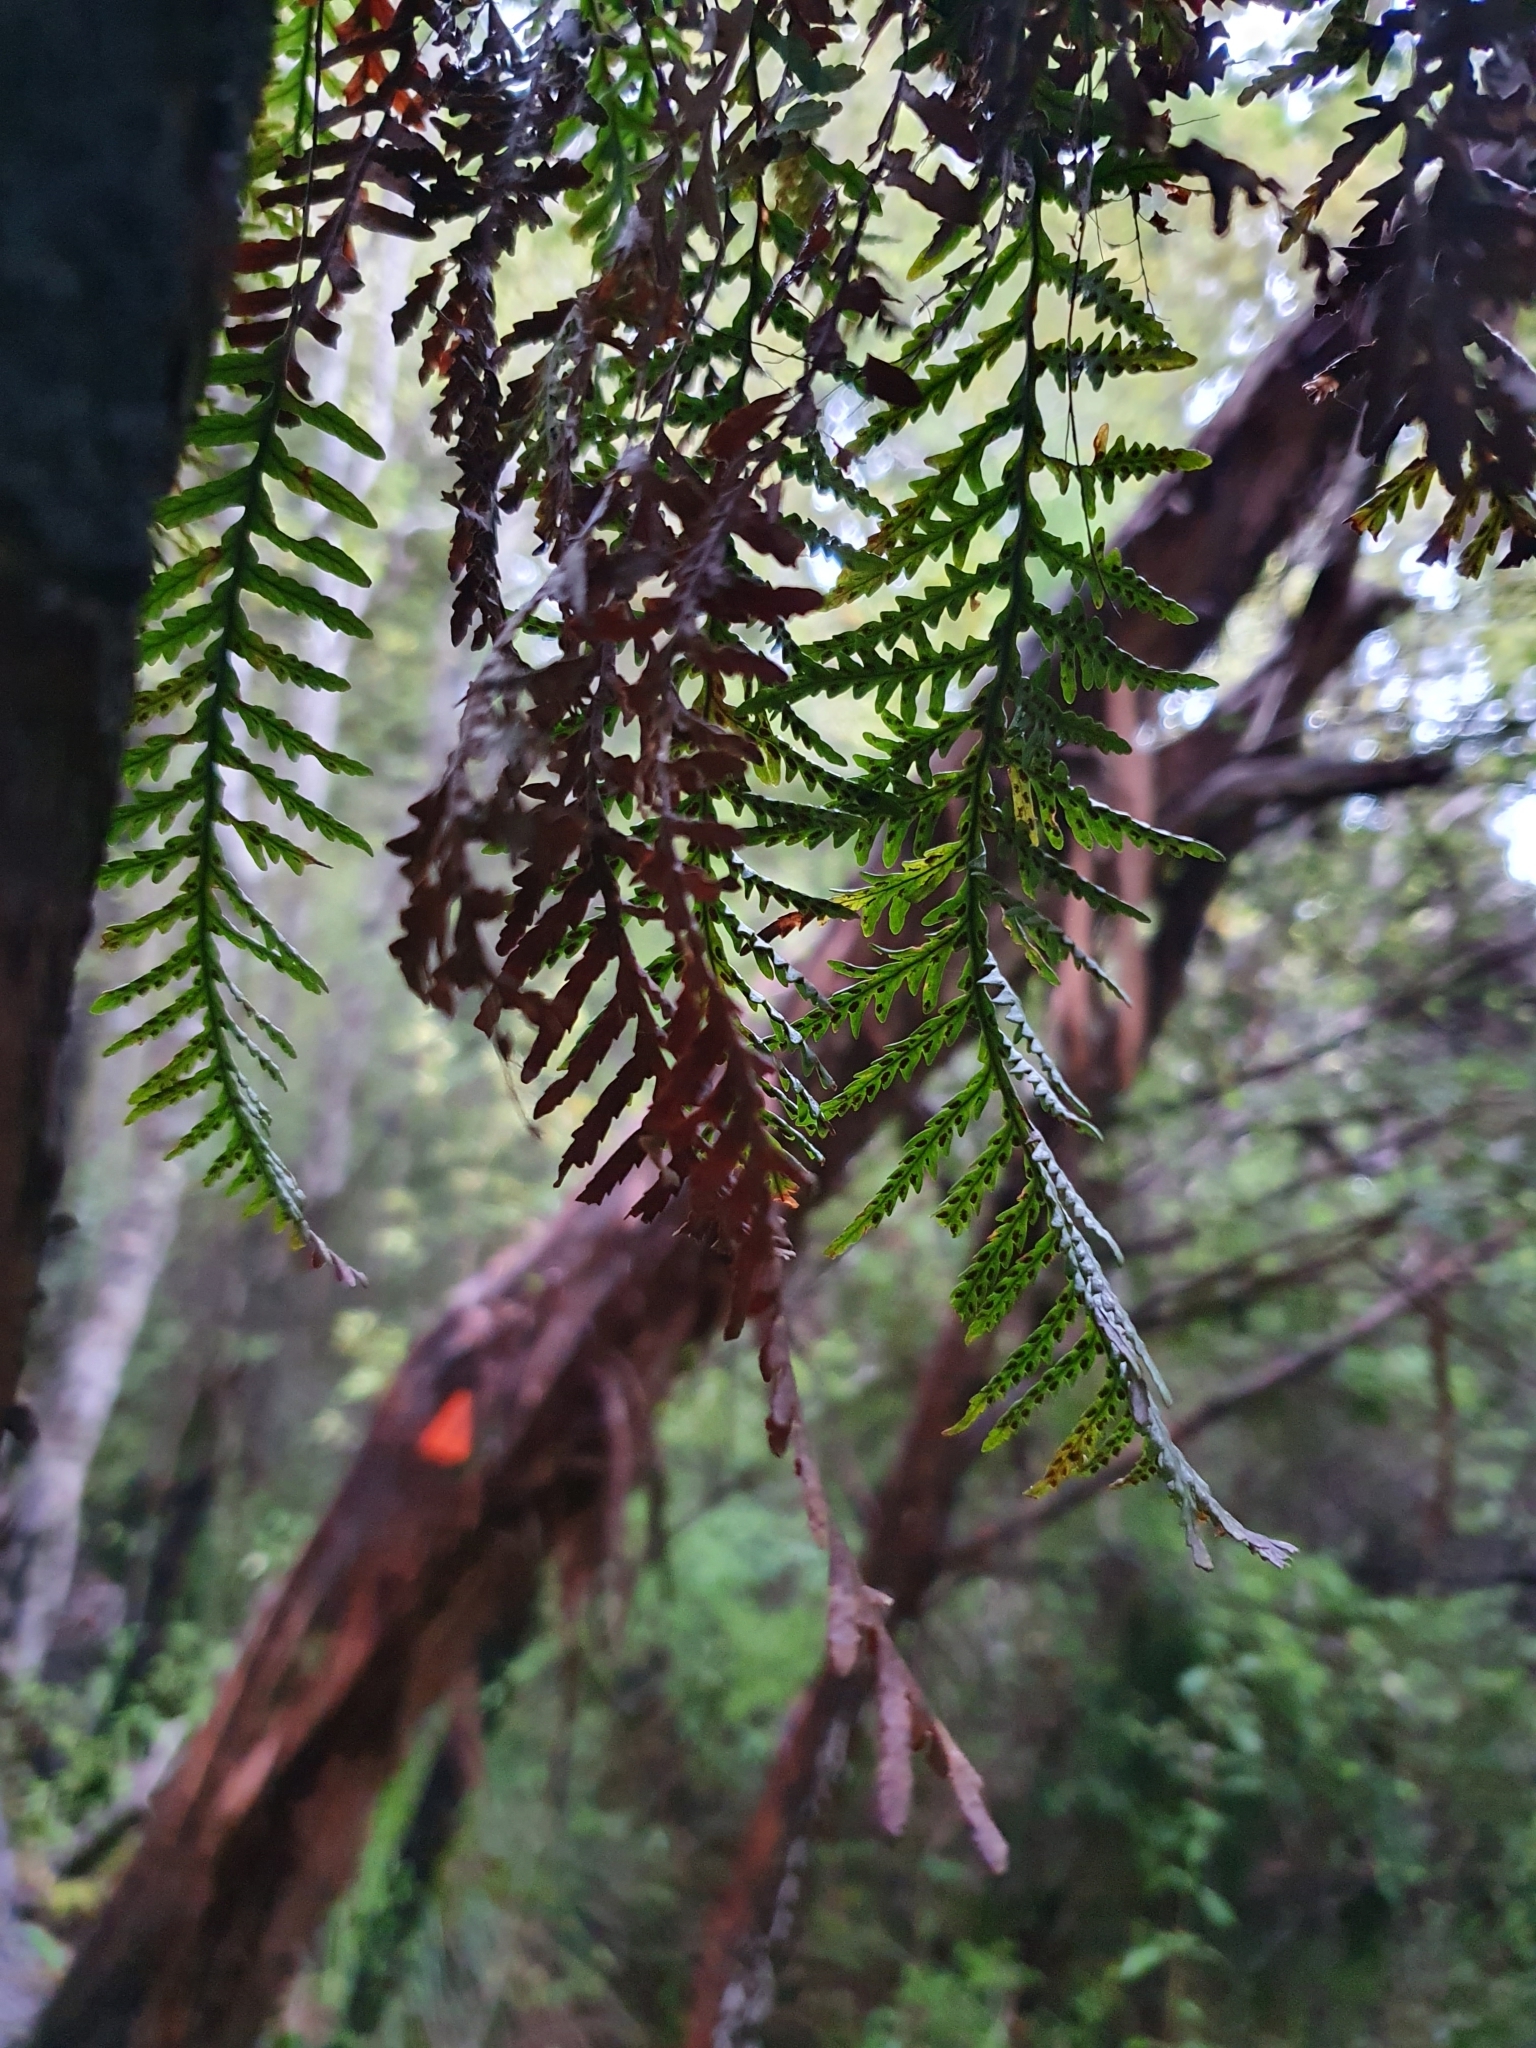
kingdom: Plantae
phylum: Tracheophyta
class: Polypodiopsida
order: Polypodiales
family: Polypodiaceae
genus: Notogrammitis
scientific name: Notogrammitis heterophylla
